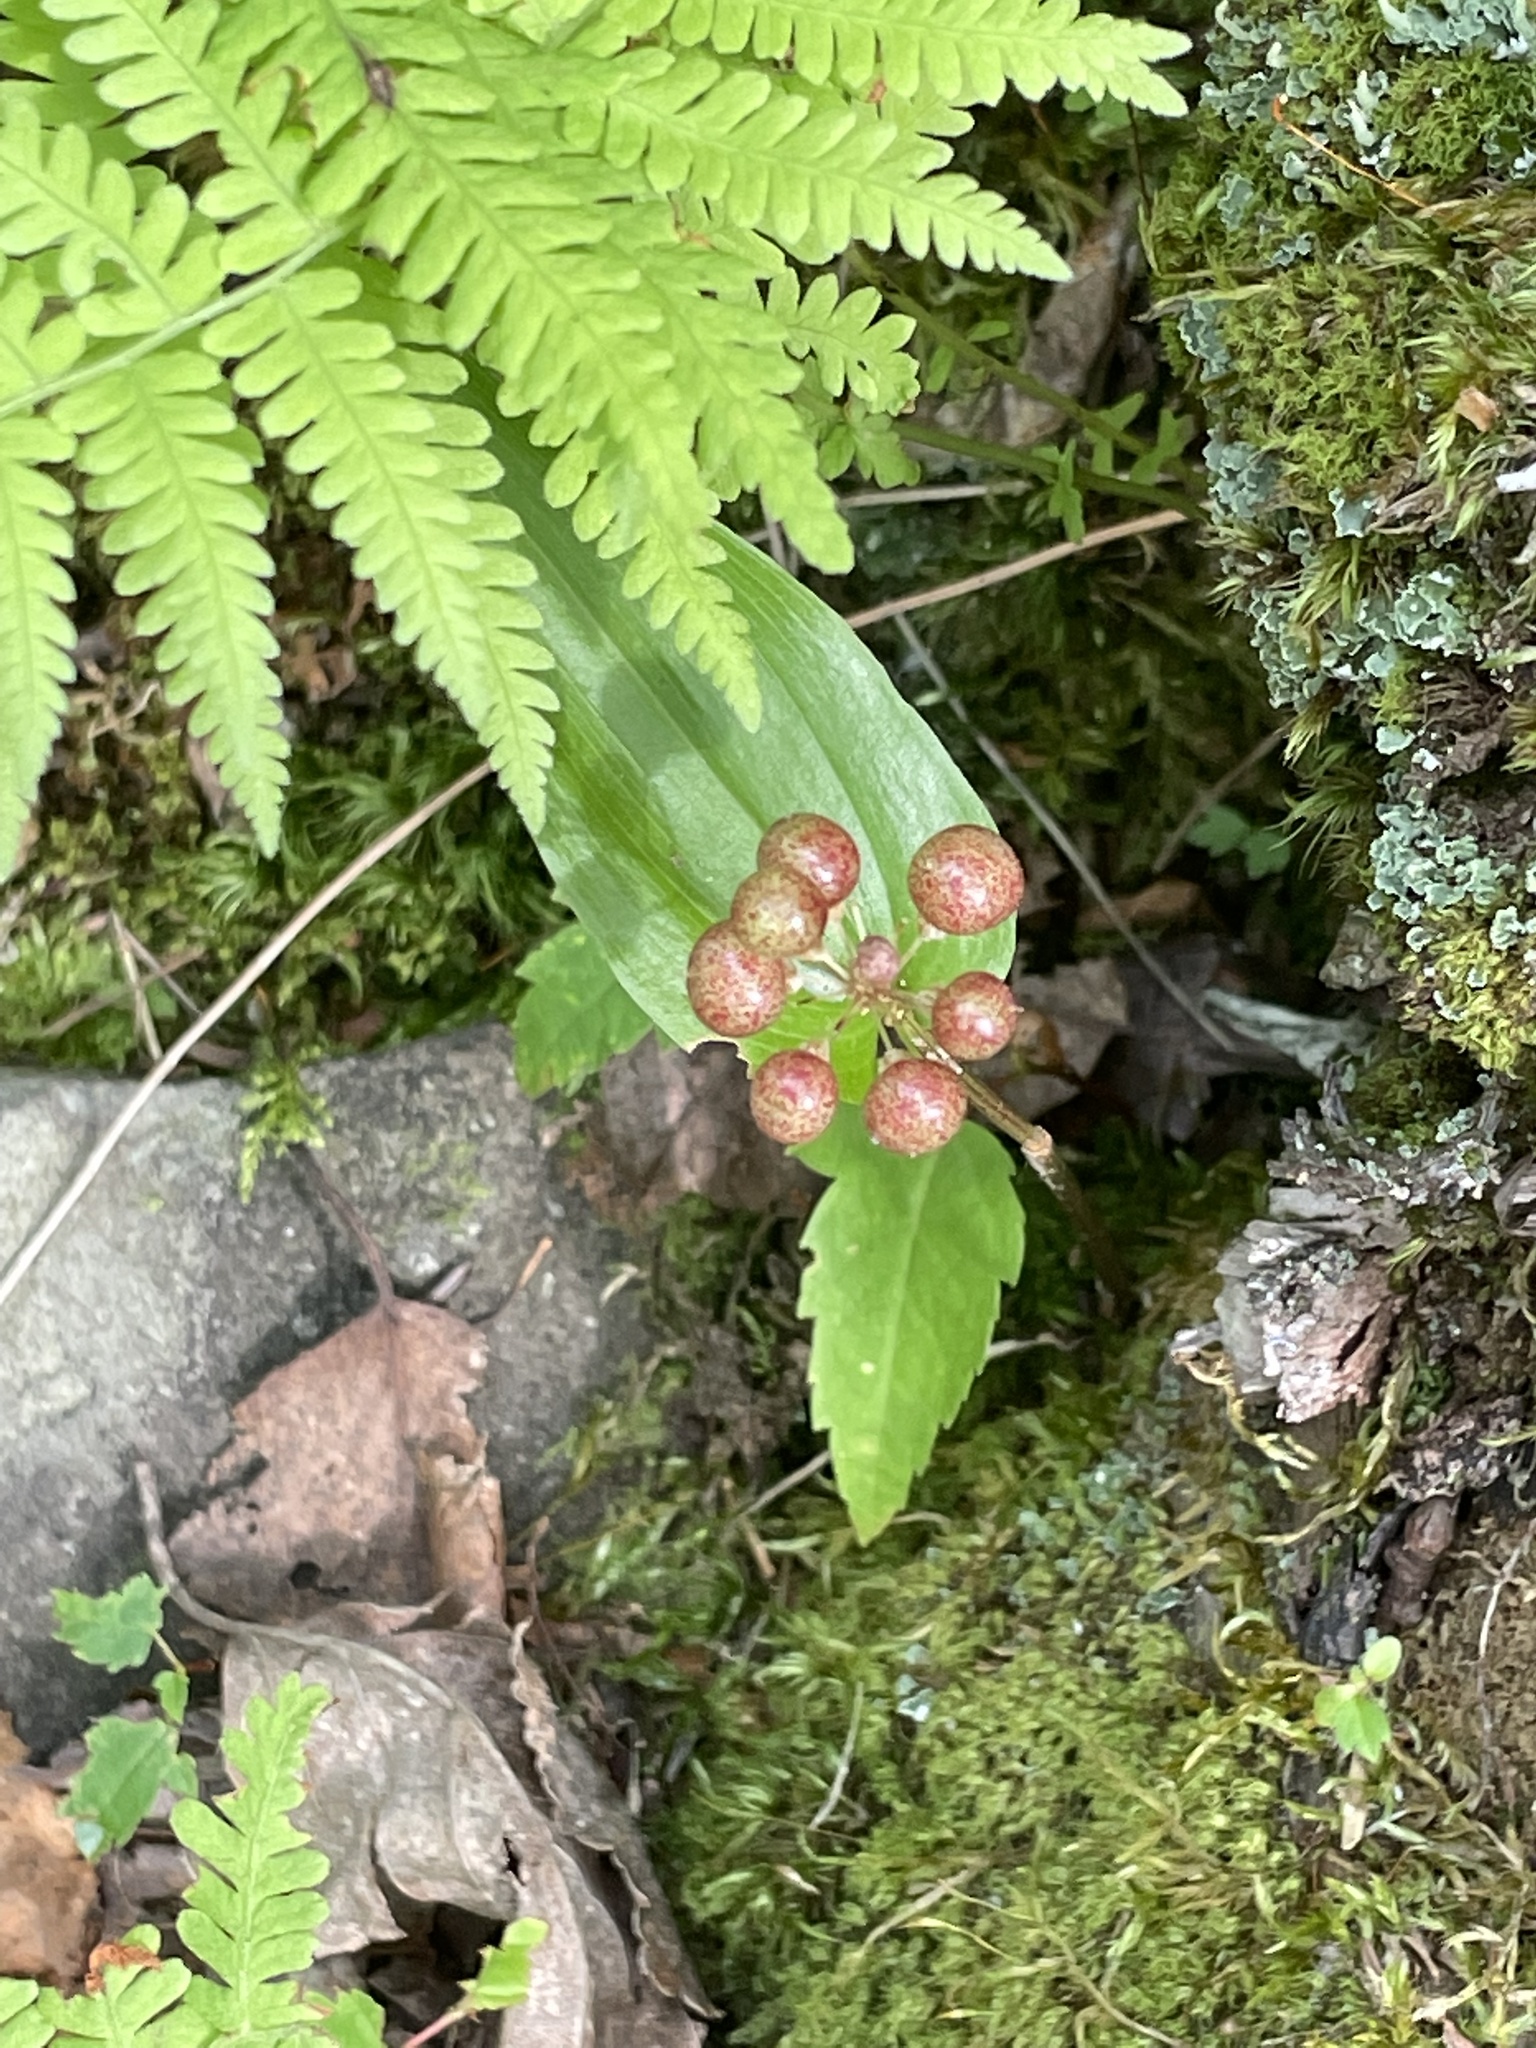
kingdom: Plantae
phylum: Tracheophyta
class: Liliopsida
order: Asparagales
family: Asparagaceae
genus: Maianthemum
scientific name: Maianthemum canadense
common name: False lily-of-the-valley
